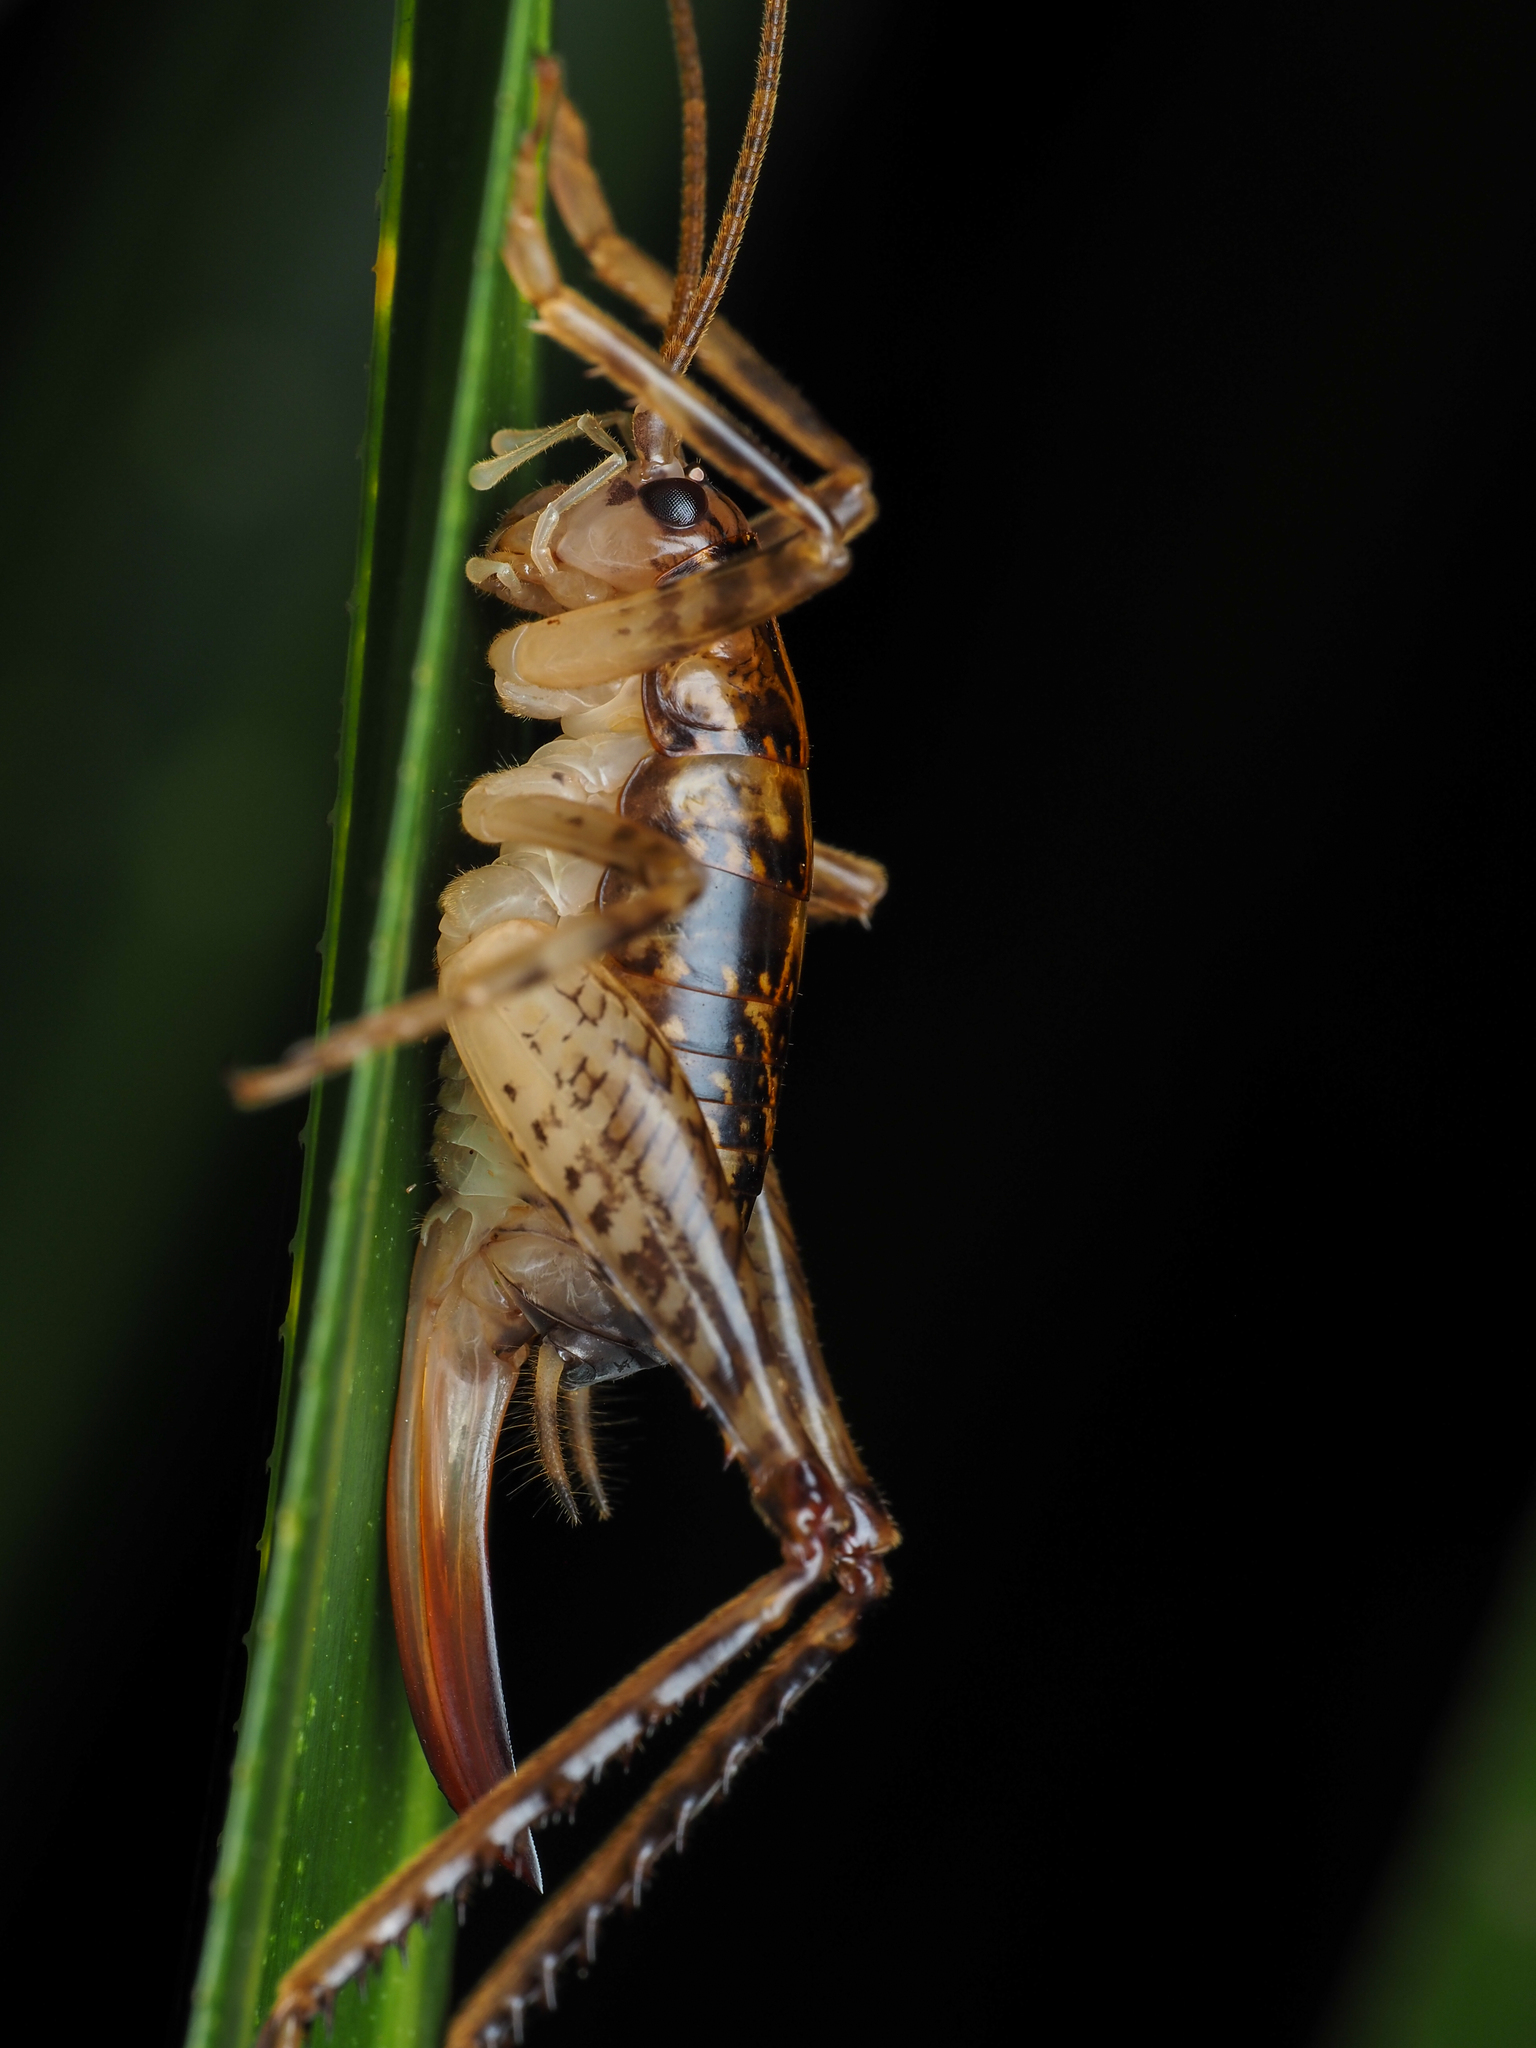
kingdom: Animalia
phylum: Arthropoda
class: Insecta
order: Orthoptera
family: Rhaphidophoridae
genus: Talitropsis
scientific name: Talitropsis sedilloti
